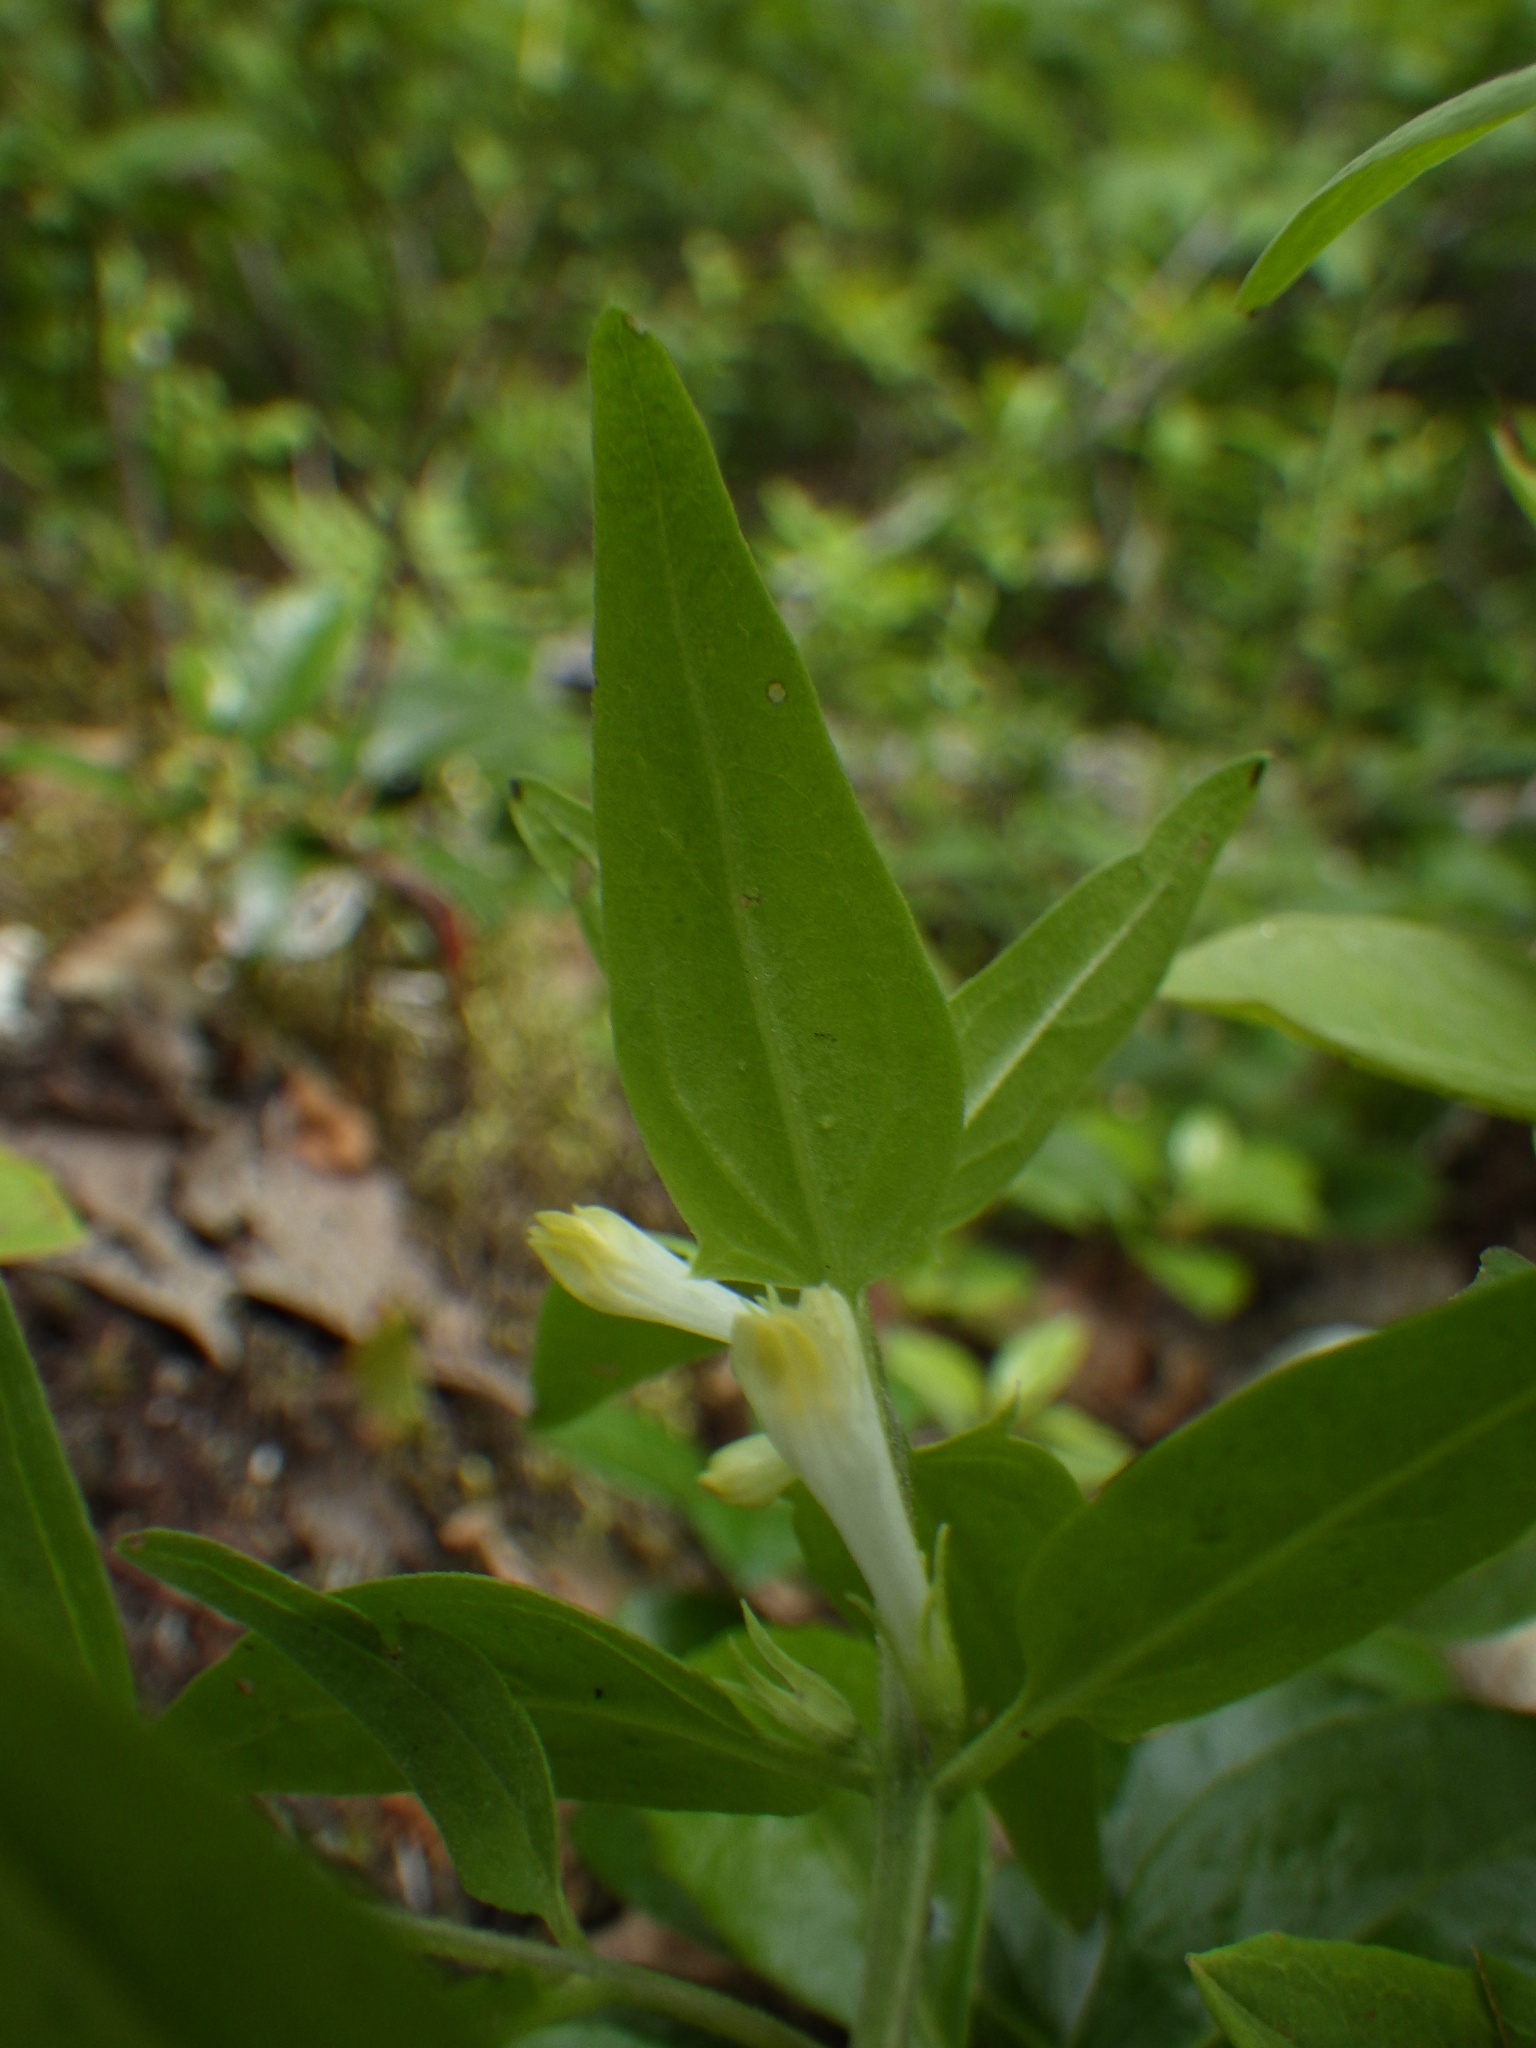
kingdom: Plantae
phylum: Tracheophyta
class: Magnoliopsida
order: Lamiales
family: Orobanchaceae
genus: Melampyrum
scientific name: Melampyrum lineare
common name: American cow-wheat
